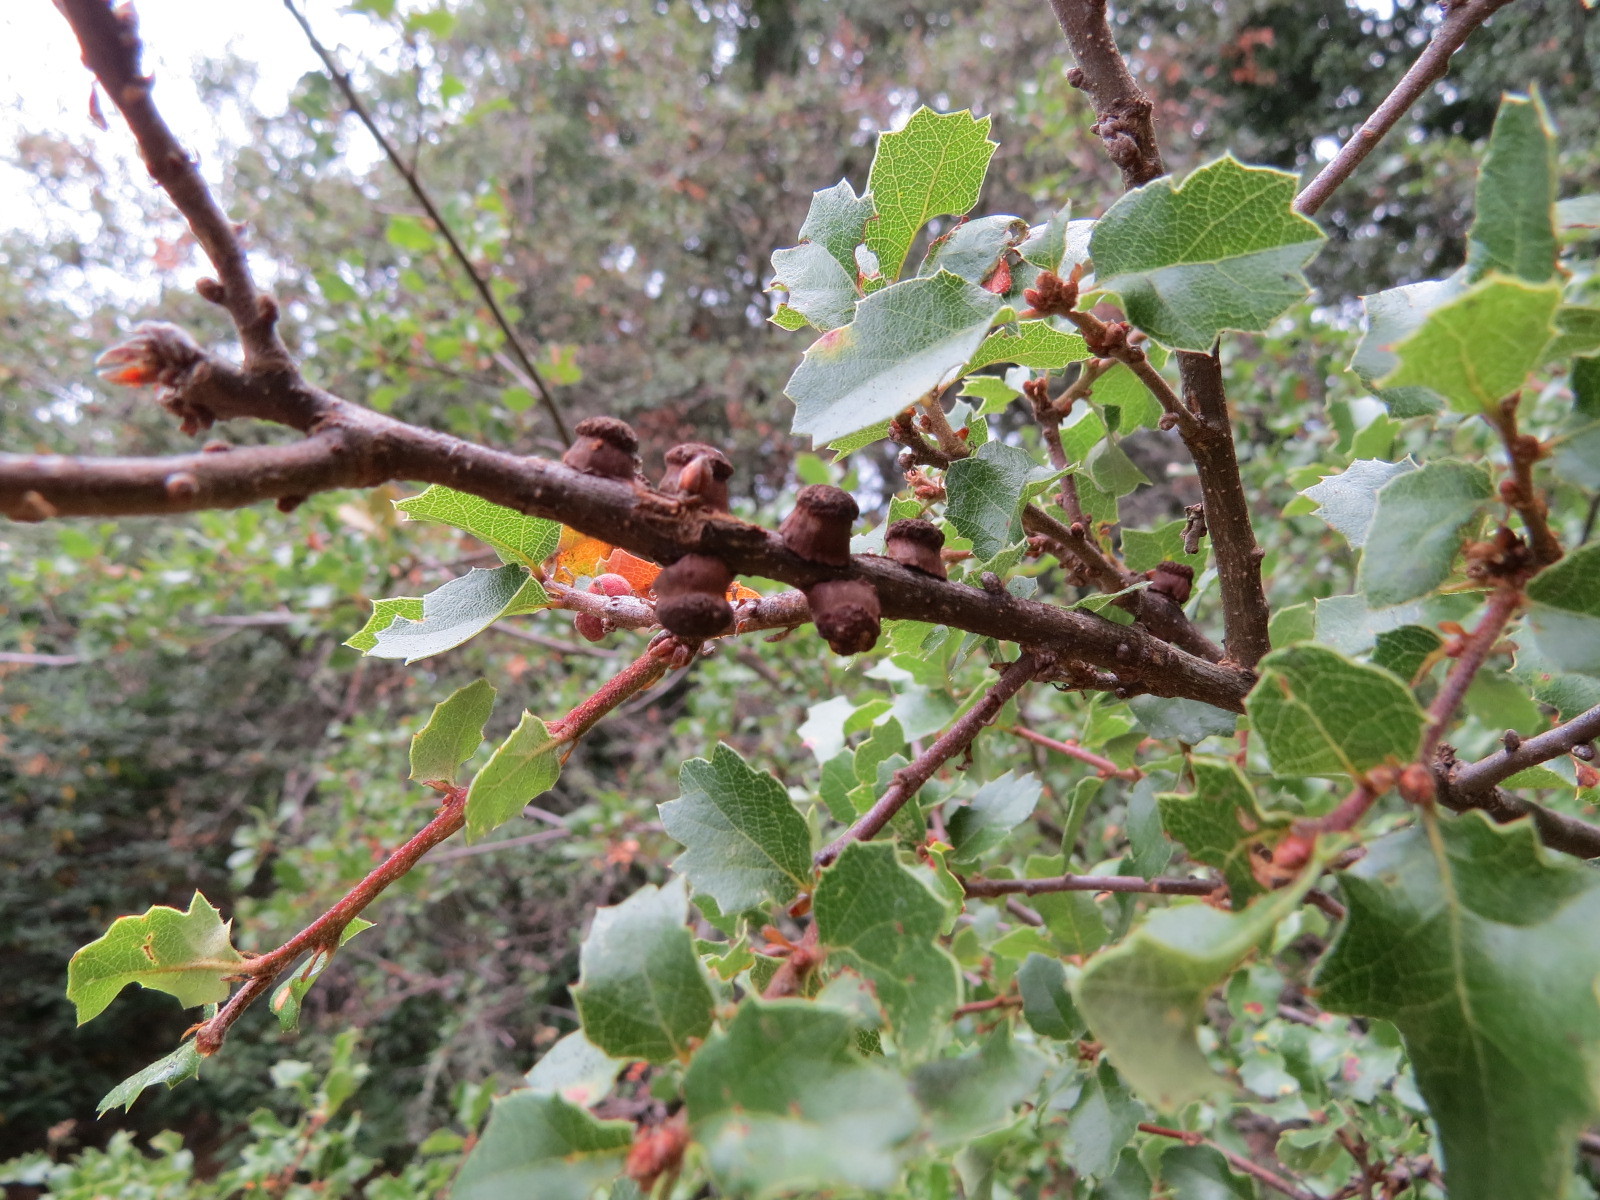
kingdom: Animalia
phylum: Arthropoda
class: Insecta
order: Hymenoptera
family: Cynipidae
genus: Disholcaspis
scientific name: Disholcaspis prehensa
